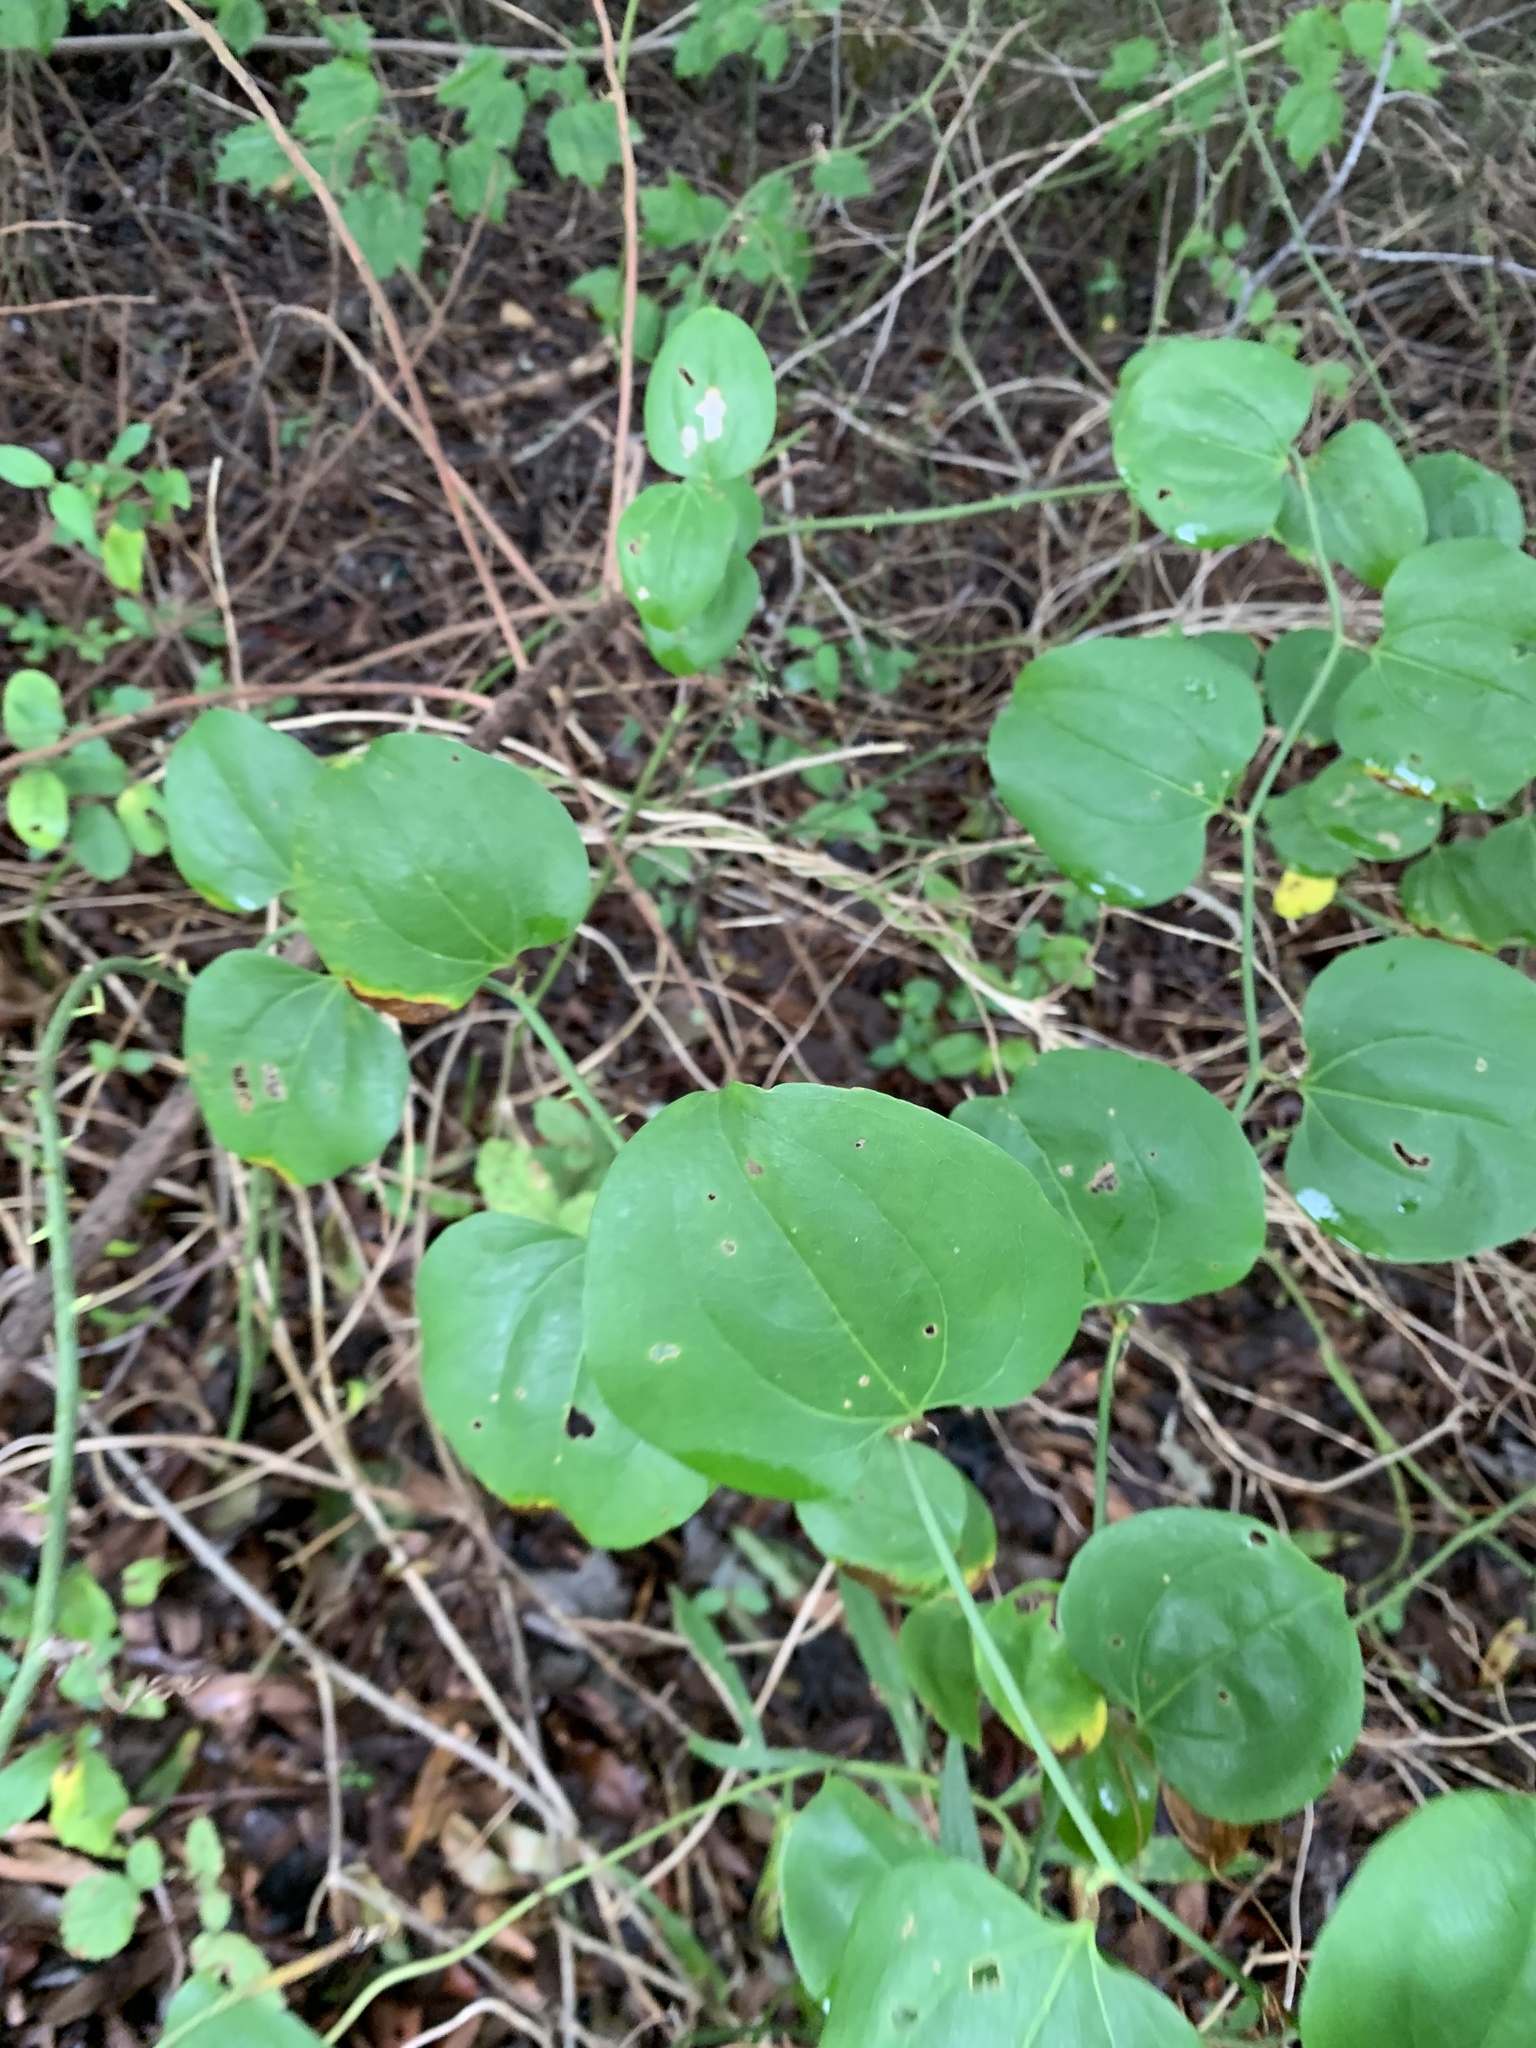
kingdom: Plantae
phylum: Tracheophyta
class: Liliopsida
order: Liliales
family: Smilacaceae
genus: Smilax
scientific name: Smilax rotundifolia
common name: Bullbriar
